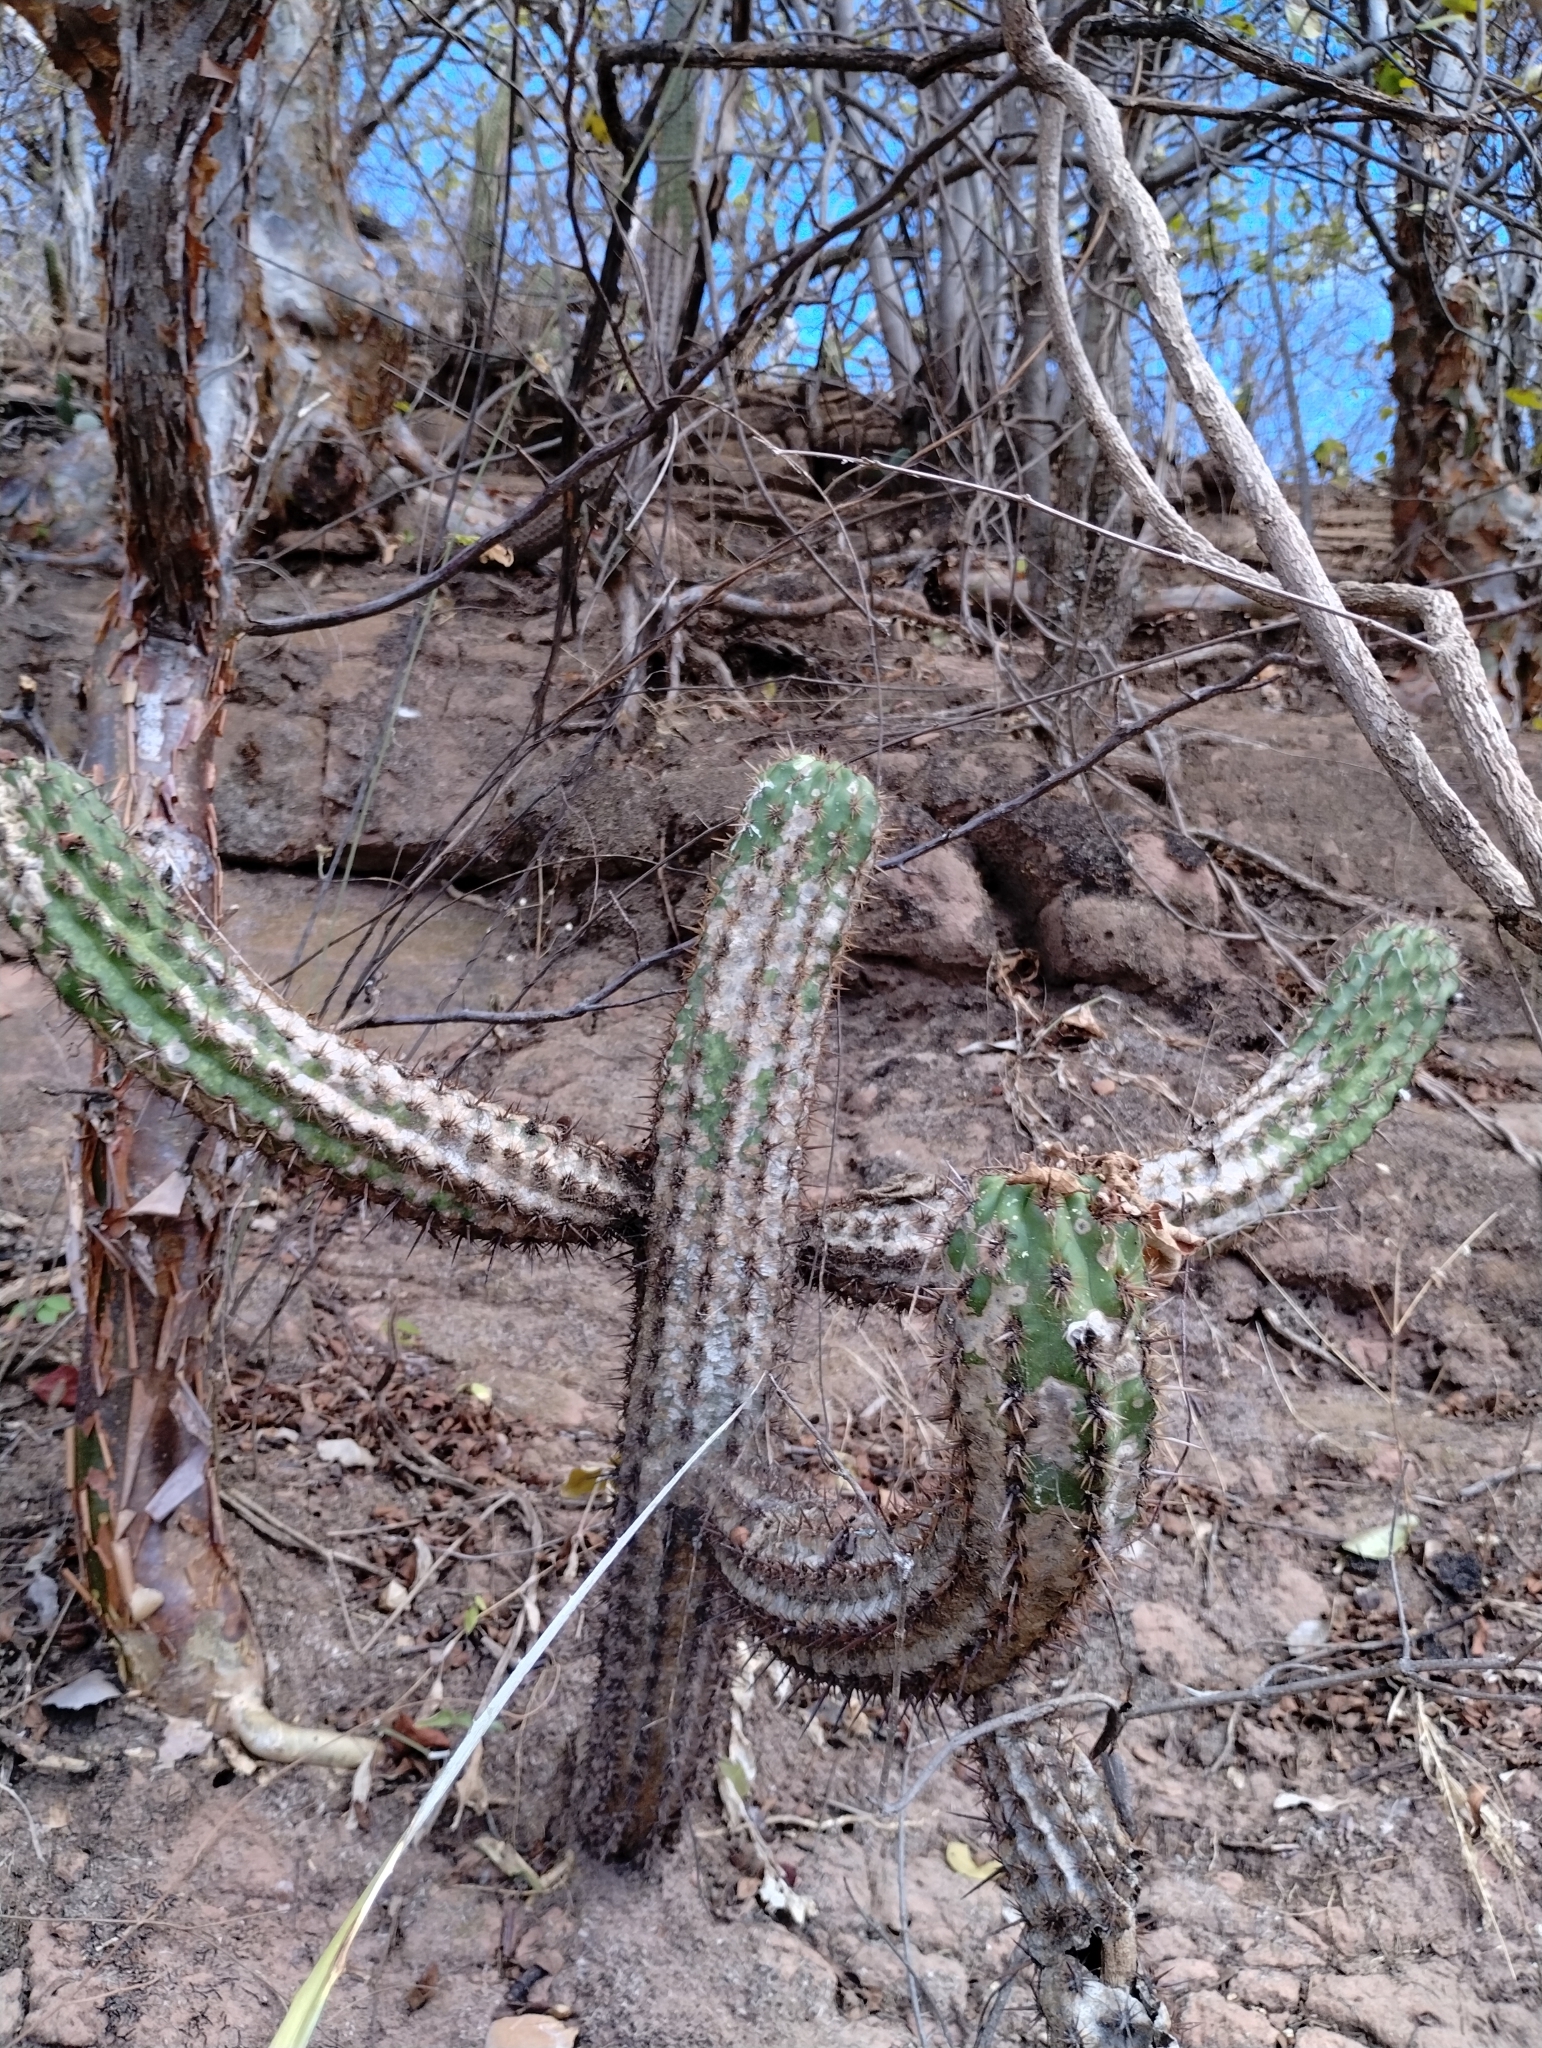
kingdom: Plantae
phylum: Tracheophyta
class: Magnoliopsida
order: Caryophyllales
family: Cactaceae
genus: Xiquexique
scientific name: Xiquexique gounellei
